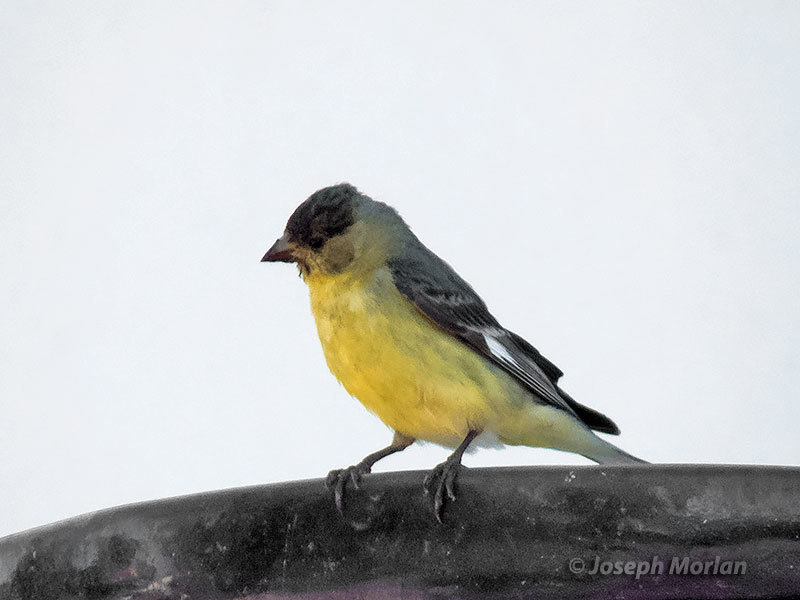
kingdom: Animalia
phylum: Chordata
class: Aves
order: Passeriformes
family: Fringillidae
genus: Spinus
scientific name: Spinus psaltria
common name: Lesser goldfinch
